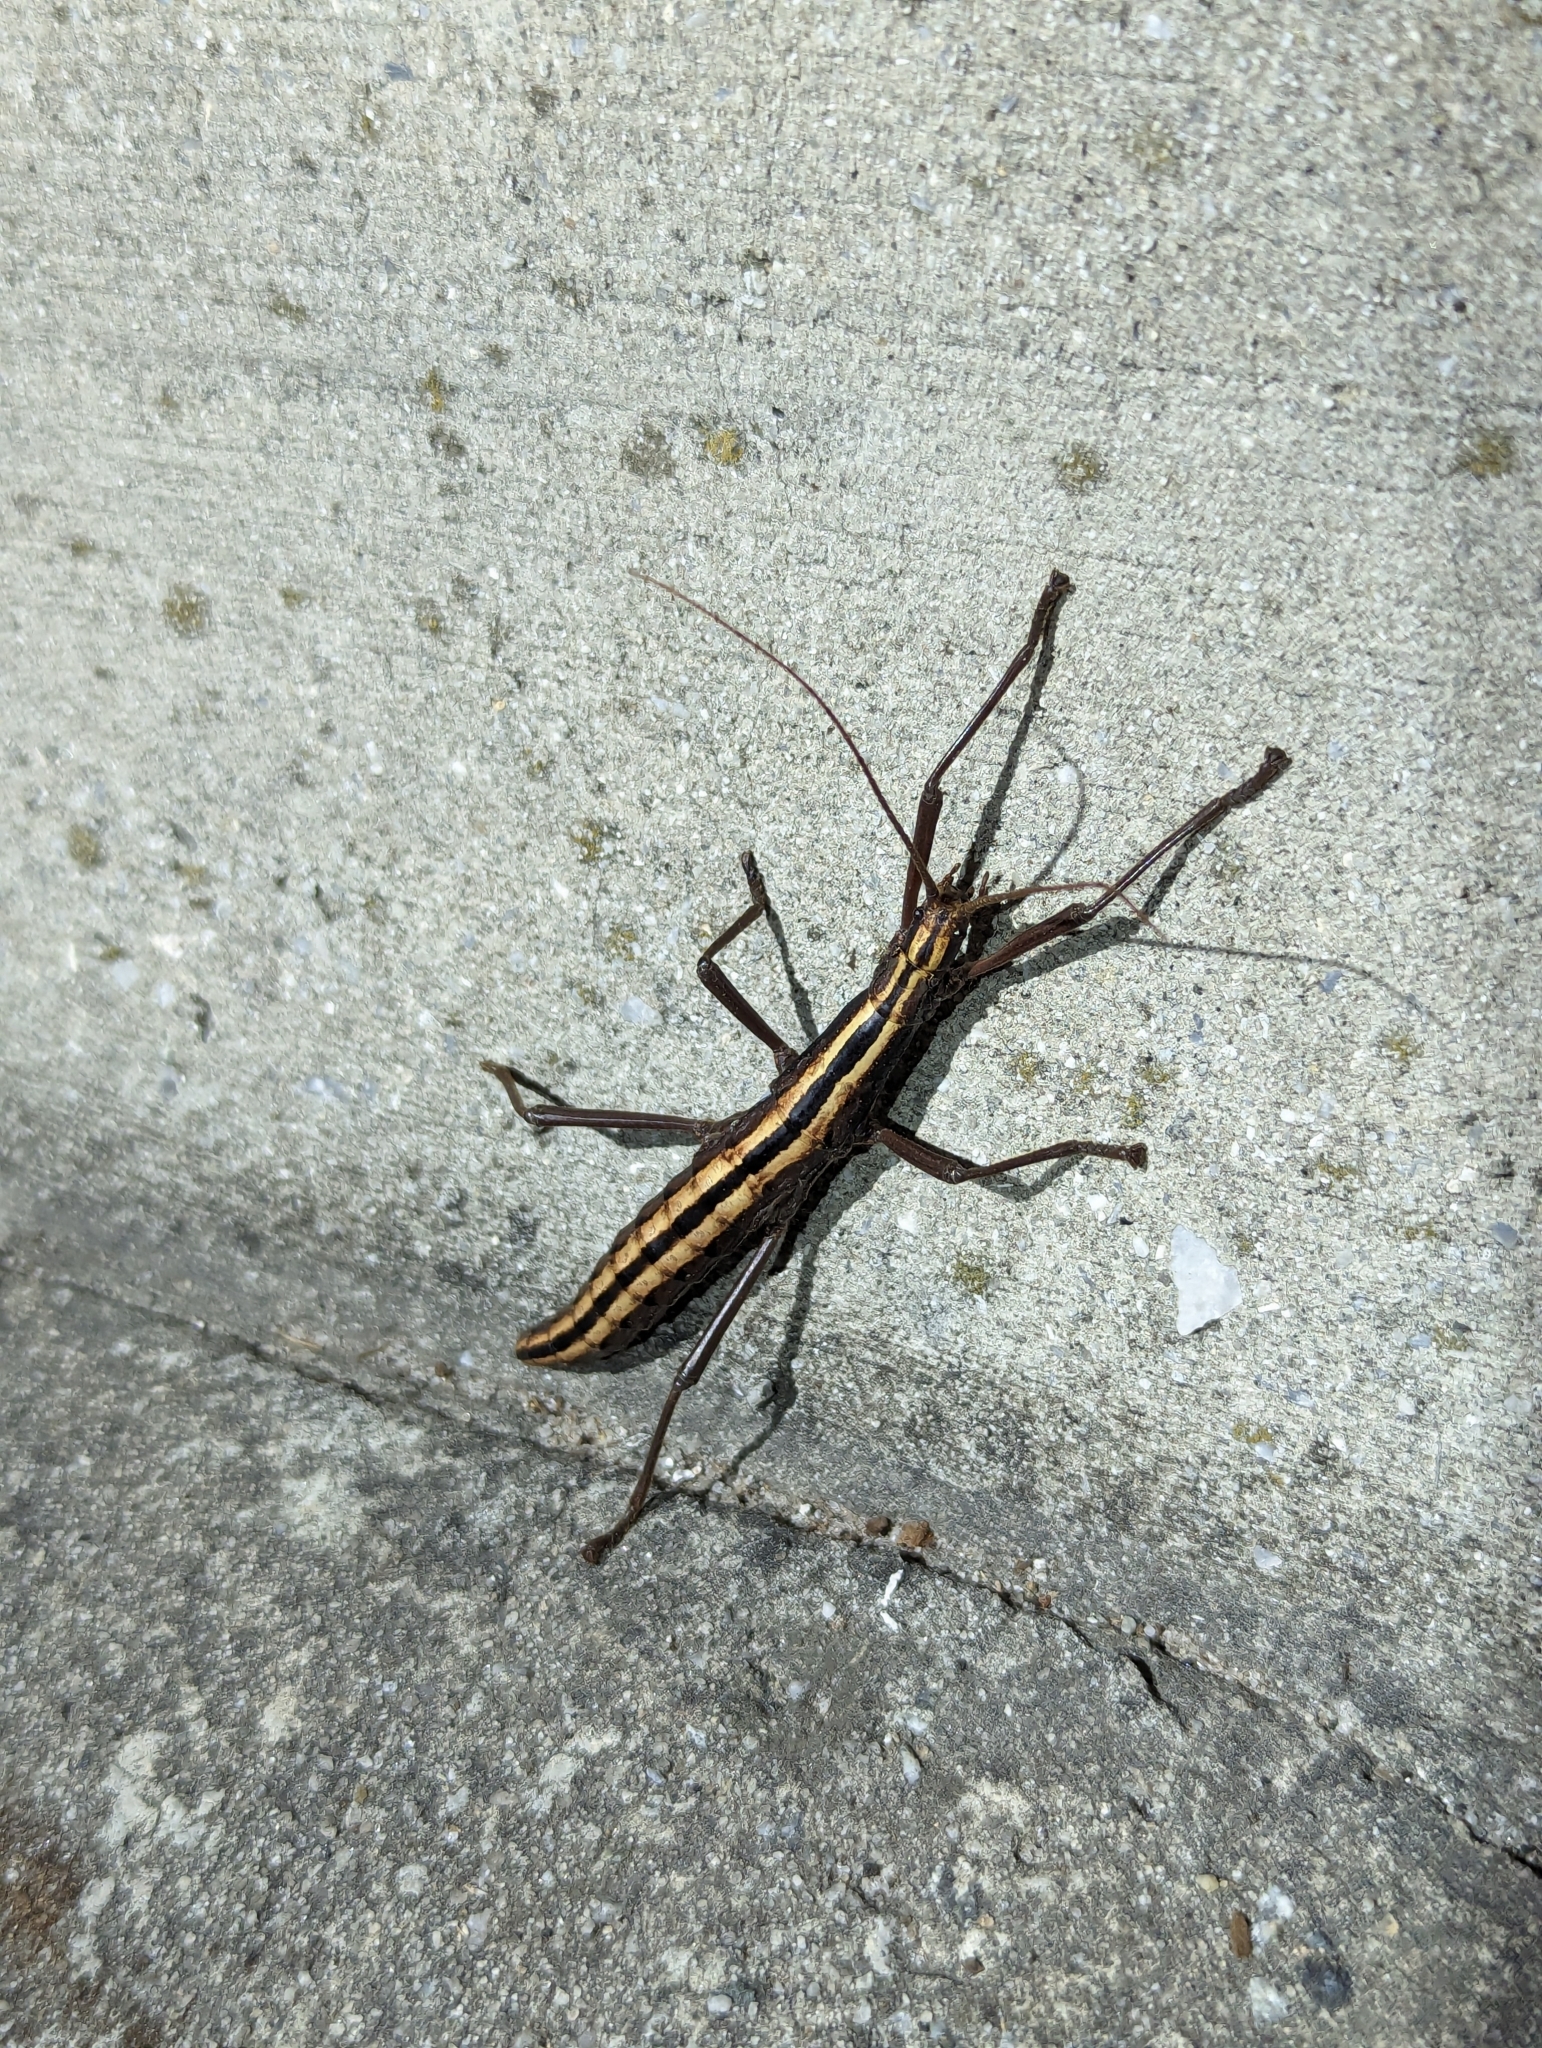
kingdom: Animalia
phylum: Arthropoda
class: Insecta
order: Phasmida
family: Pseudophasmatidae
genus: Anisomorpha
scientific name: Anisomorpha buprestoides
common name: Florida stick insect
